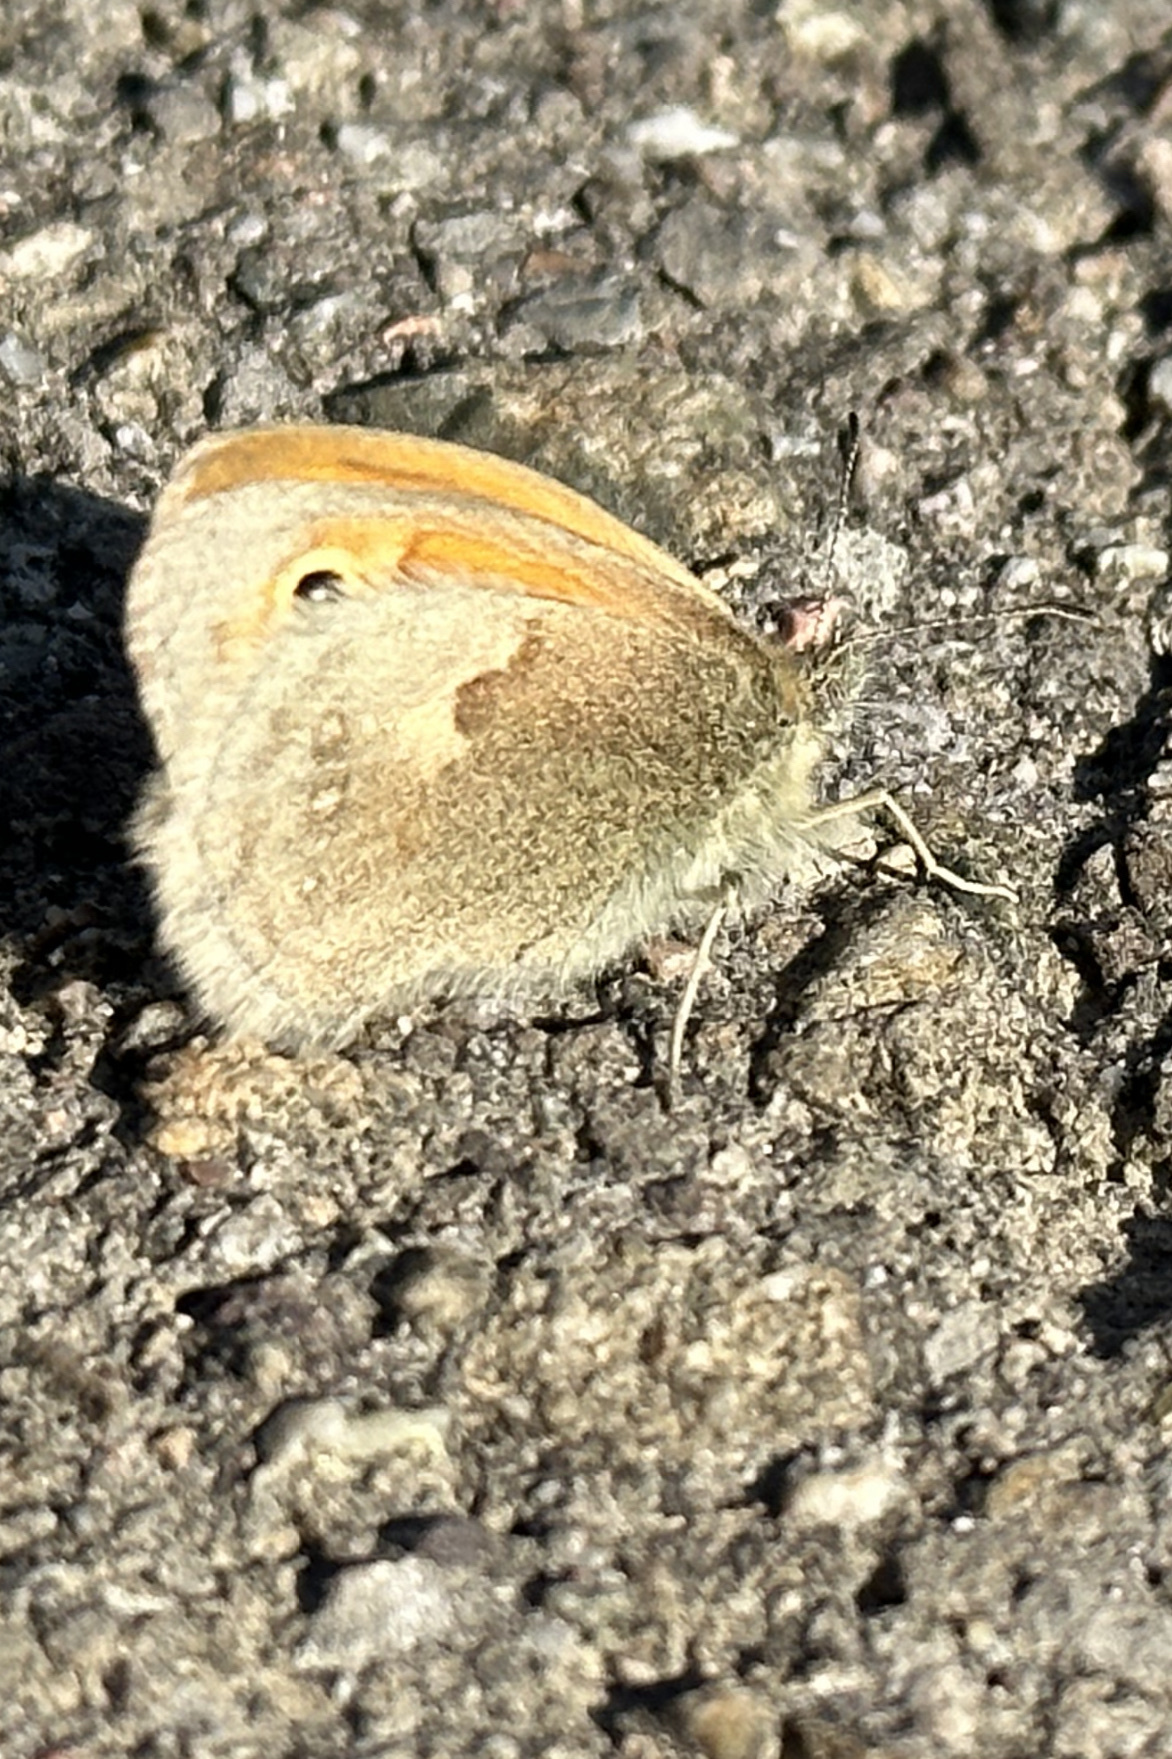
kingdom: Animalia
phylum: Arthropoda
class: Insecta
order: Lepidoptera
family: Nymphalidae
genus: Coenonympha
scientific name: Coenonympha pamphilus
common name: Small heath
